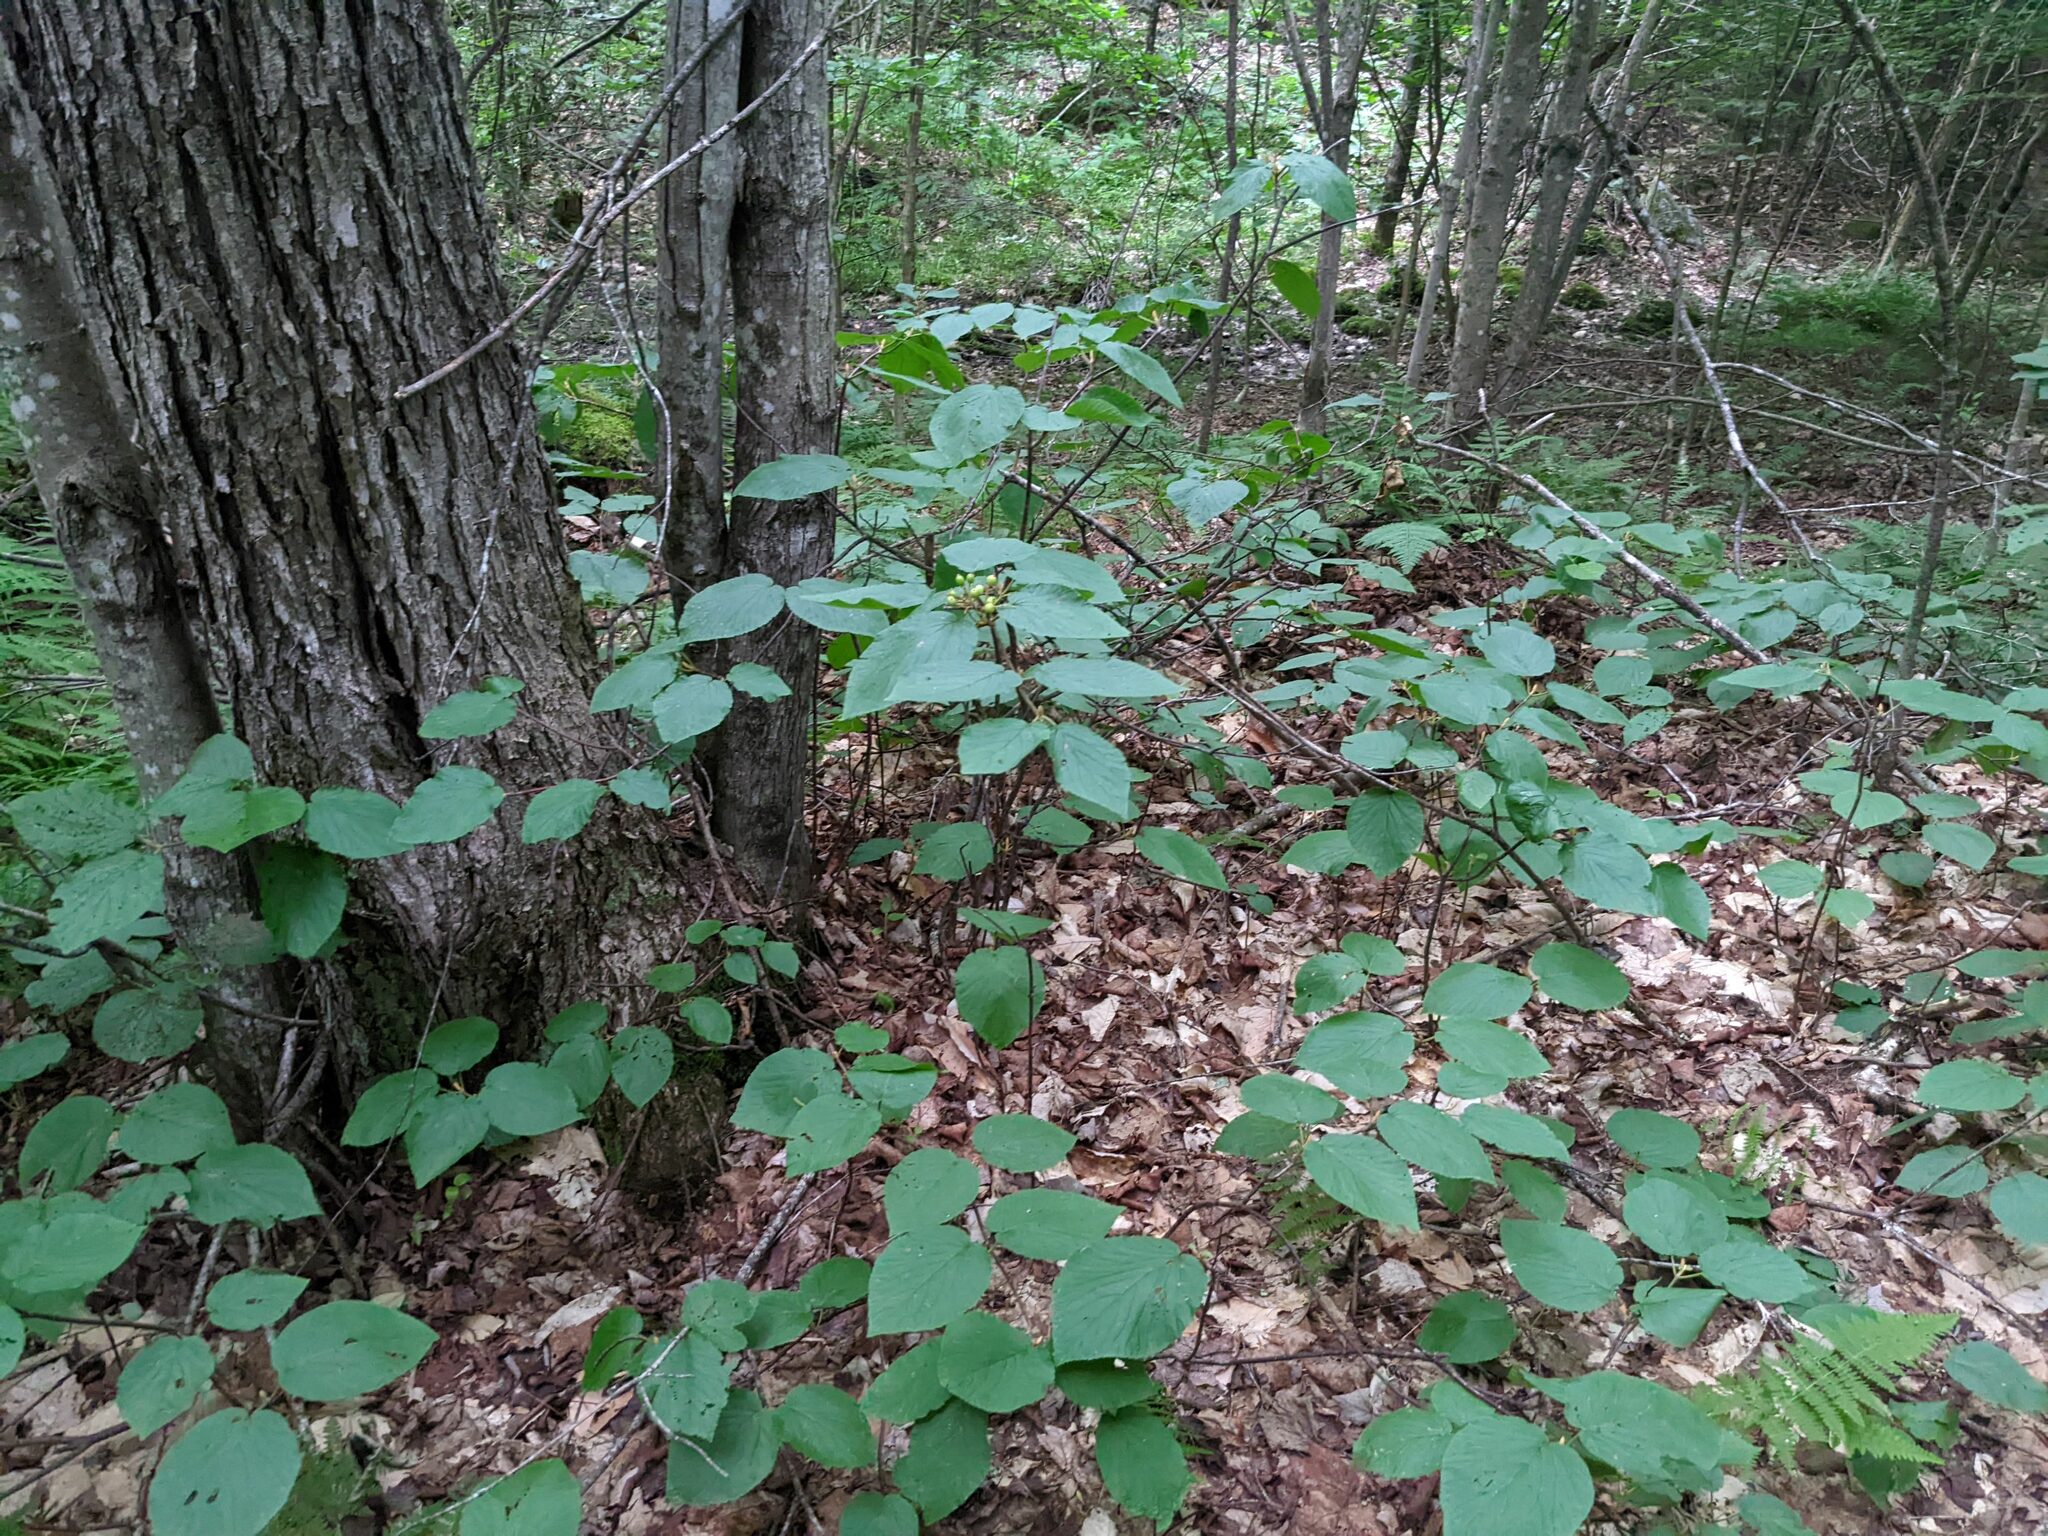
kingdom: Plantae
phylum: Tracheophyta
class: Magnoliopsida
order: Dipsacales
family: Viburnaceae
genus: Viburnum
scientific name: Viburnum lantanoides
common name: Hobblebush
